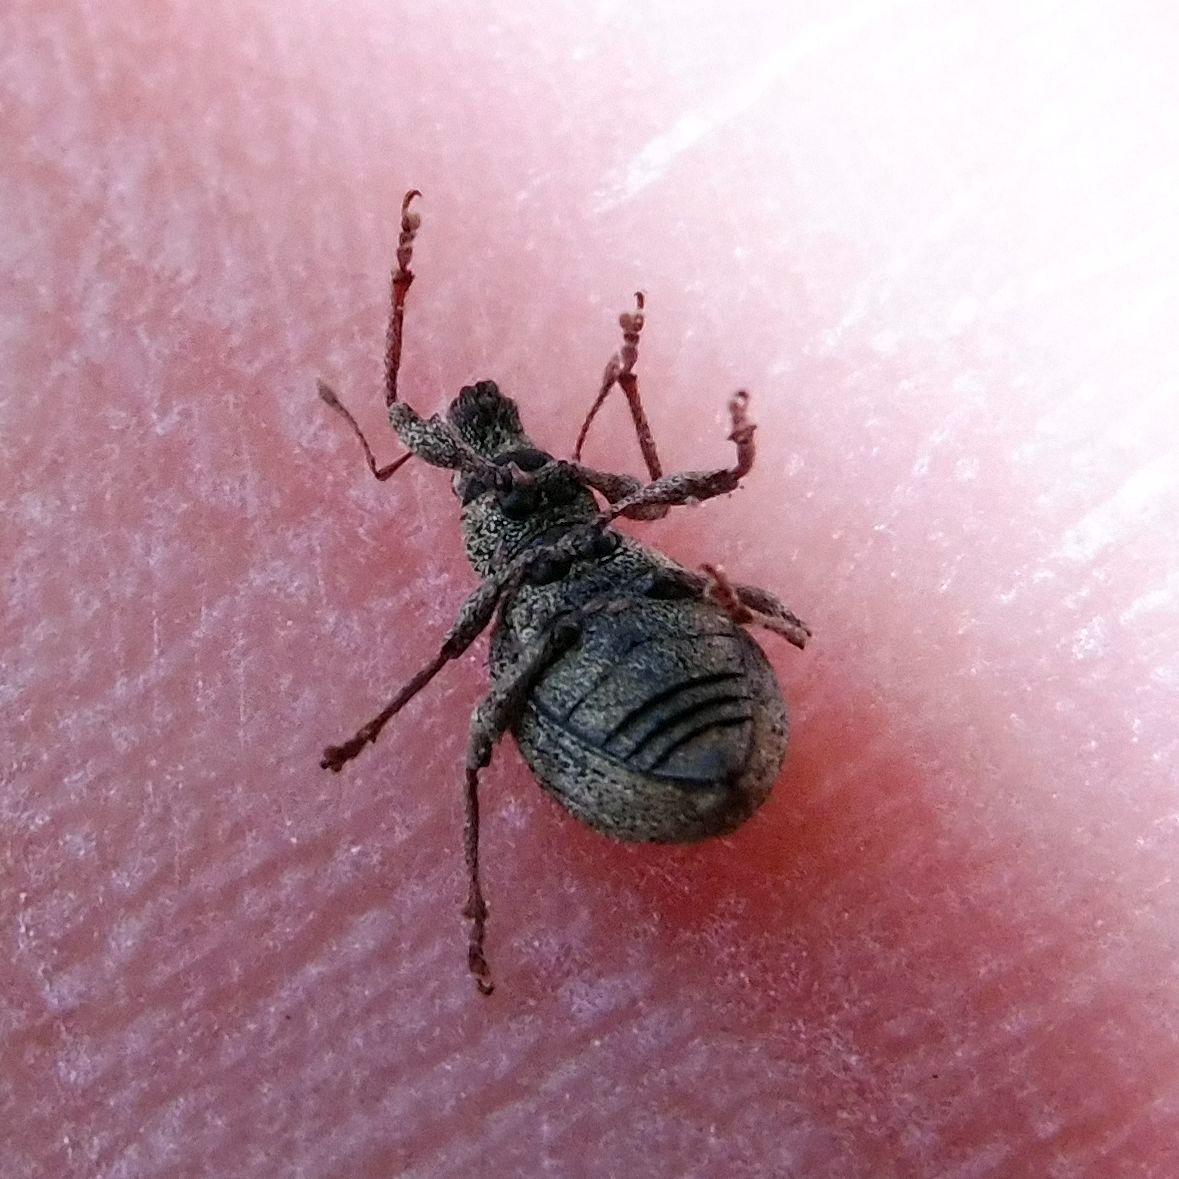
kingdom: Animalia
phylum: Arthropoda
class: Insecta
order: Coleoptera
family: Curculionidae
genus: Sciaphilus
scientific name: Sciaphilus asperatus
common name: Weevil
